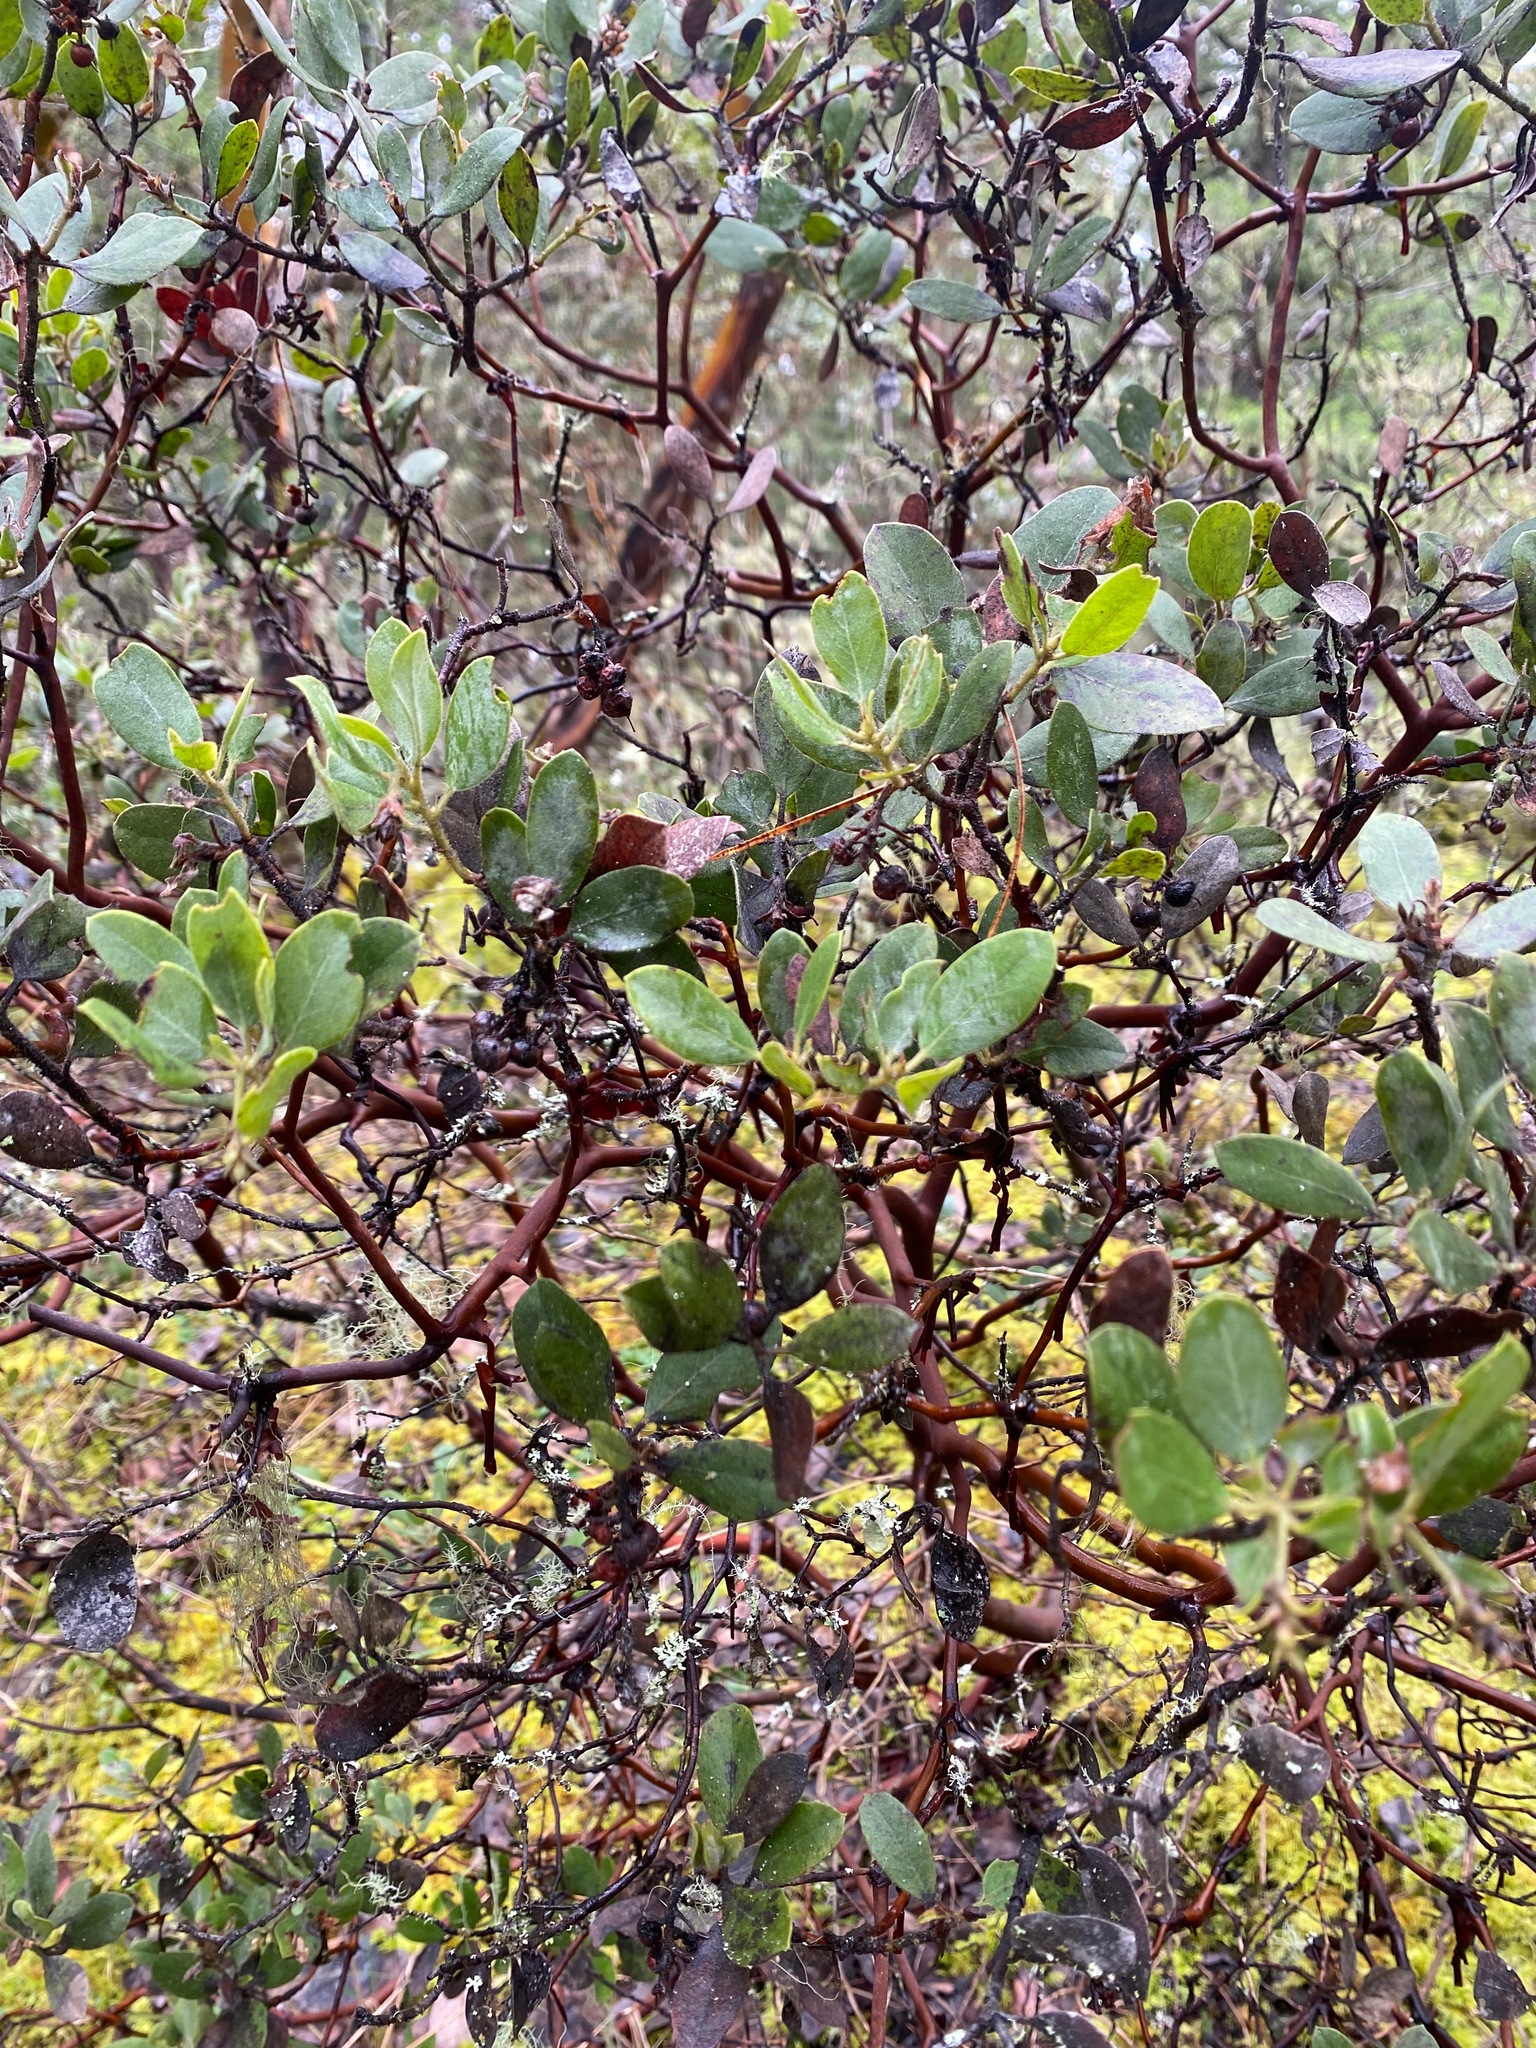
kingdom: Plantae
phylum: Tracheophyta
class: Magnoliopsida
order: Ericales
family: Ericaceae
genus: Arctostaphylos
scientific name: Arctostaphylos columbiana
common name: Bristly bearberry
